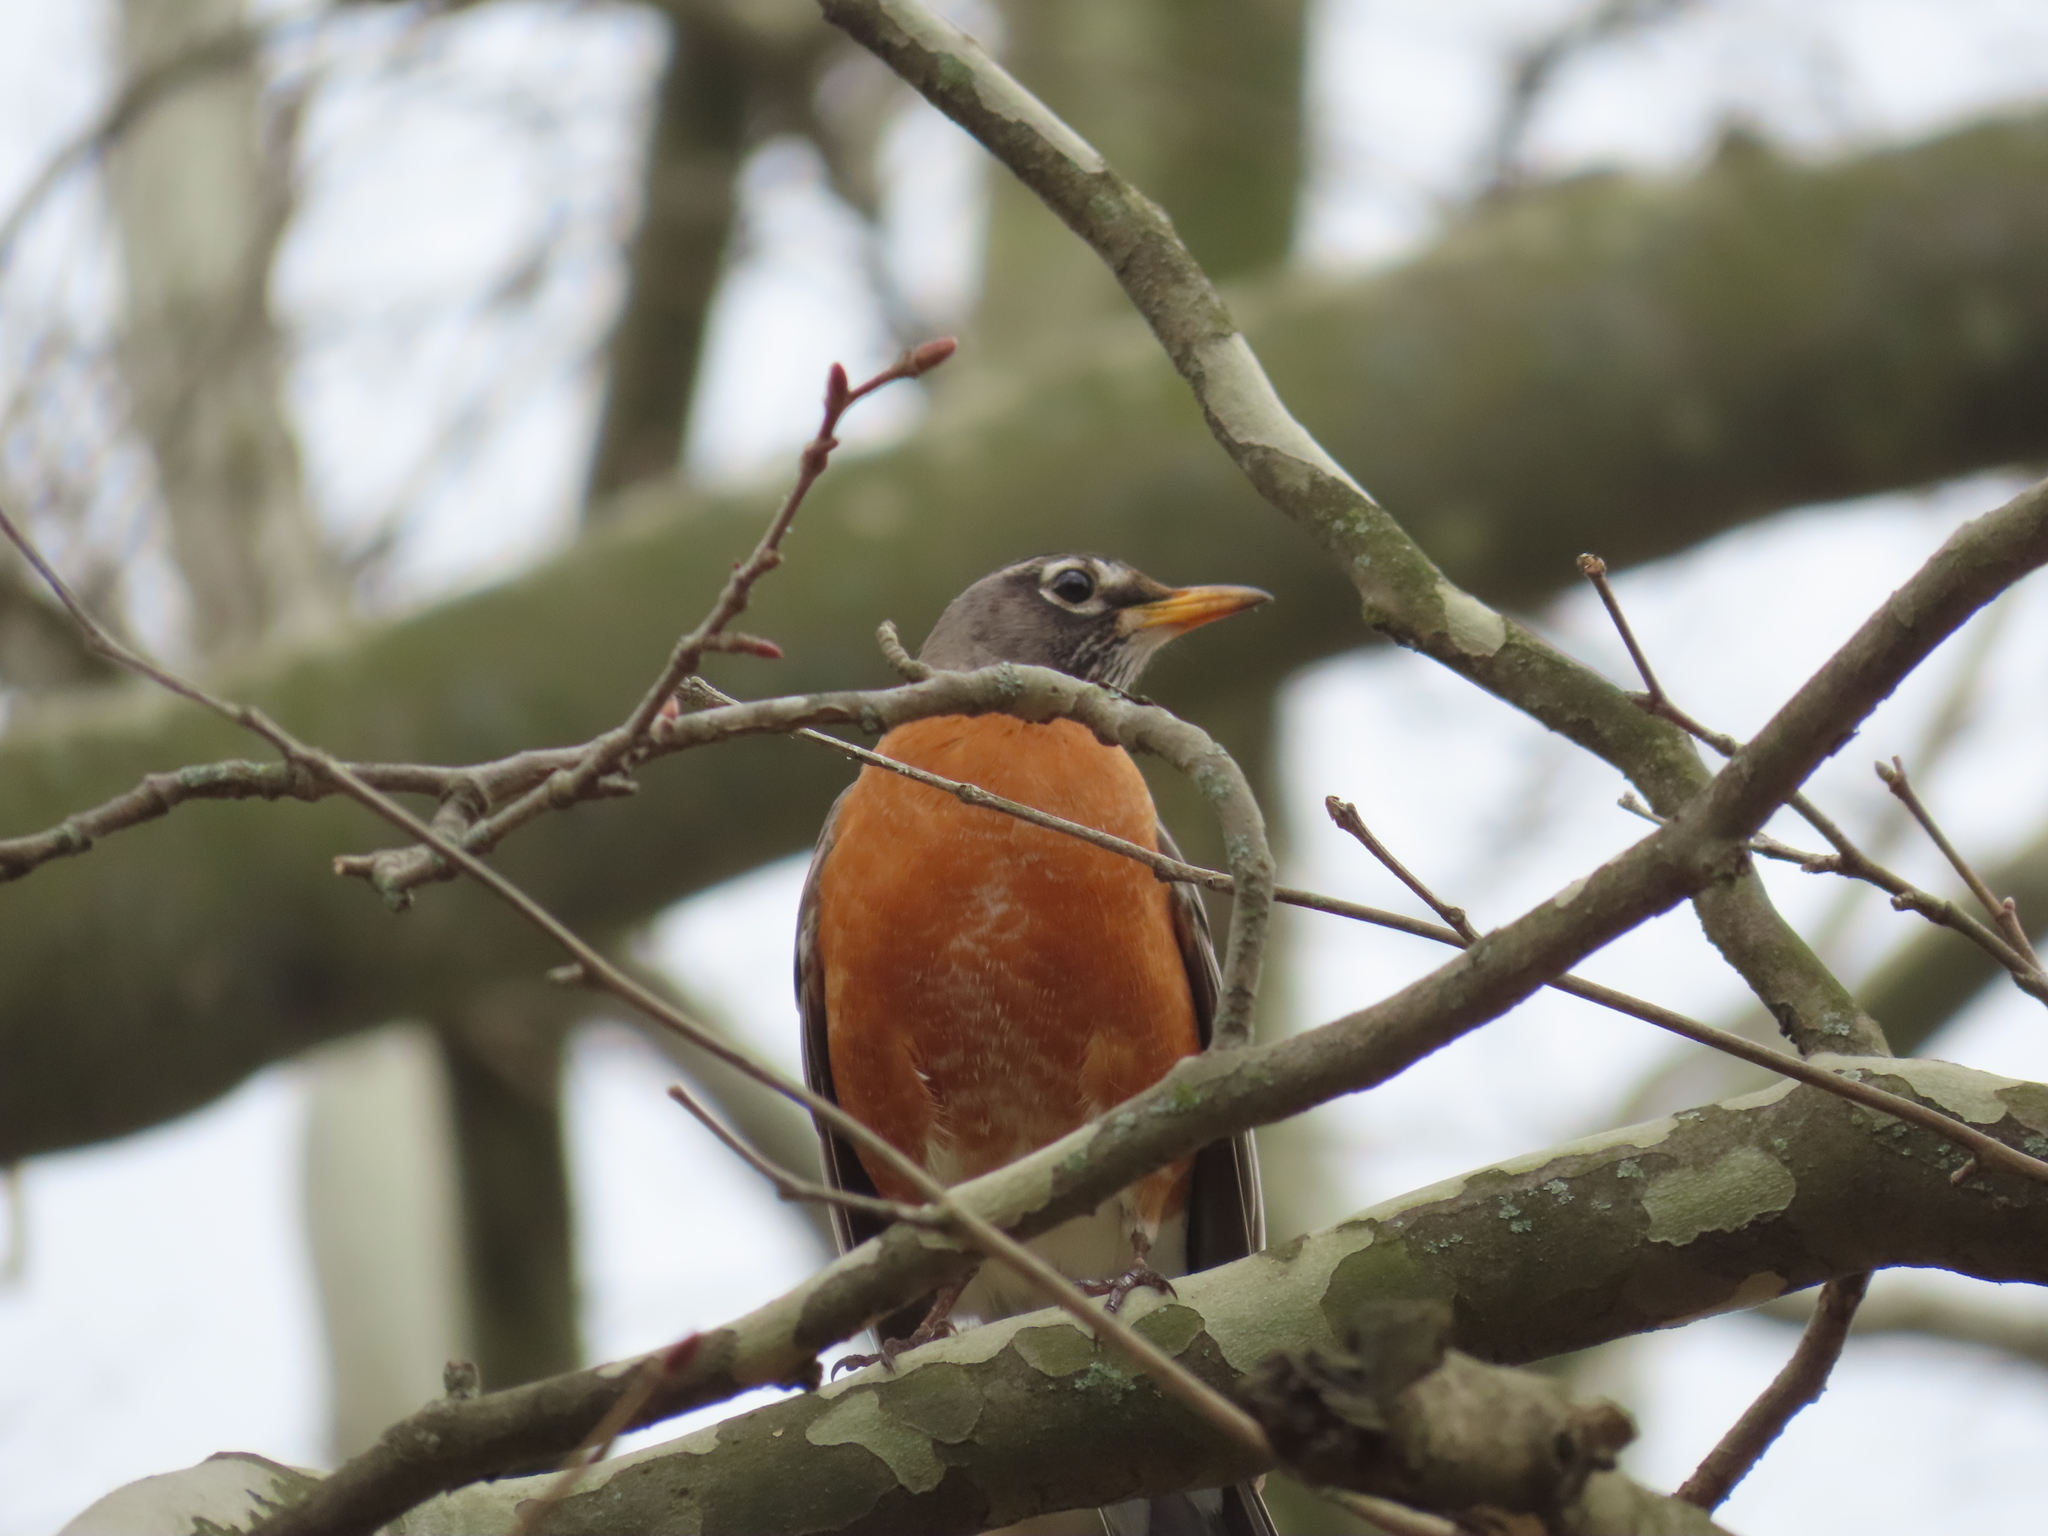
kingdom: Animalia
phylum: Chordata
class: Aves
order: Passeriformes
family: Turdidae
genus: Turdus
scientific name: Turdus migratorius
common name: American robin
